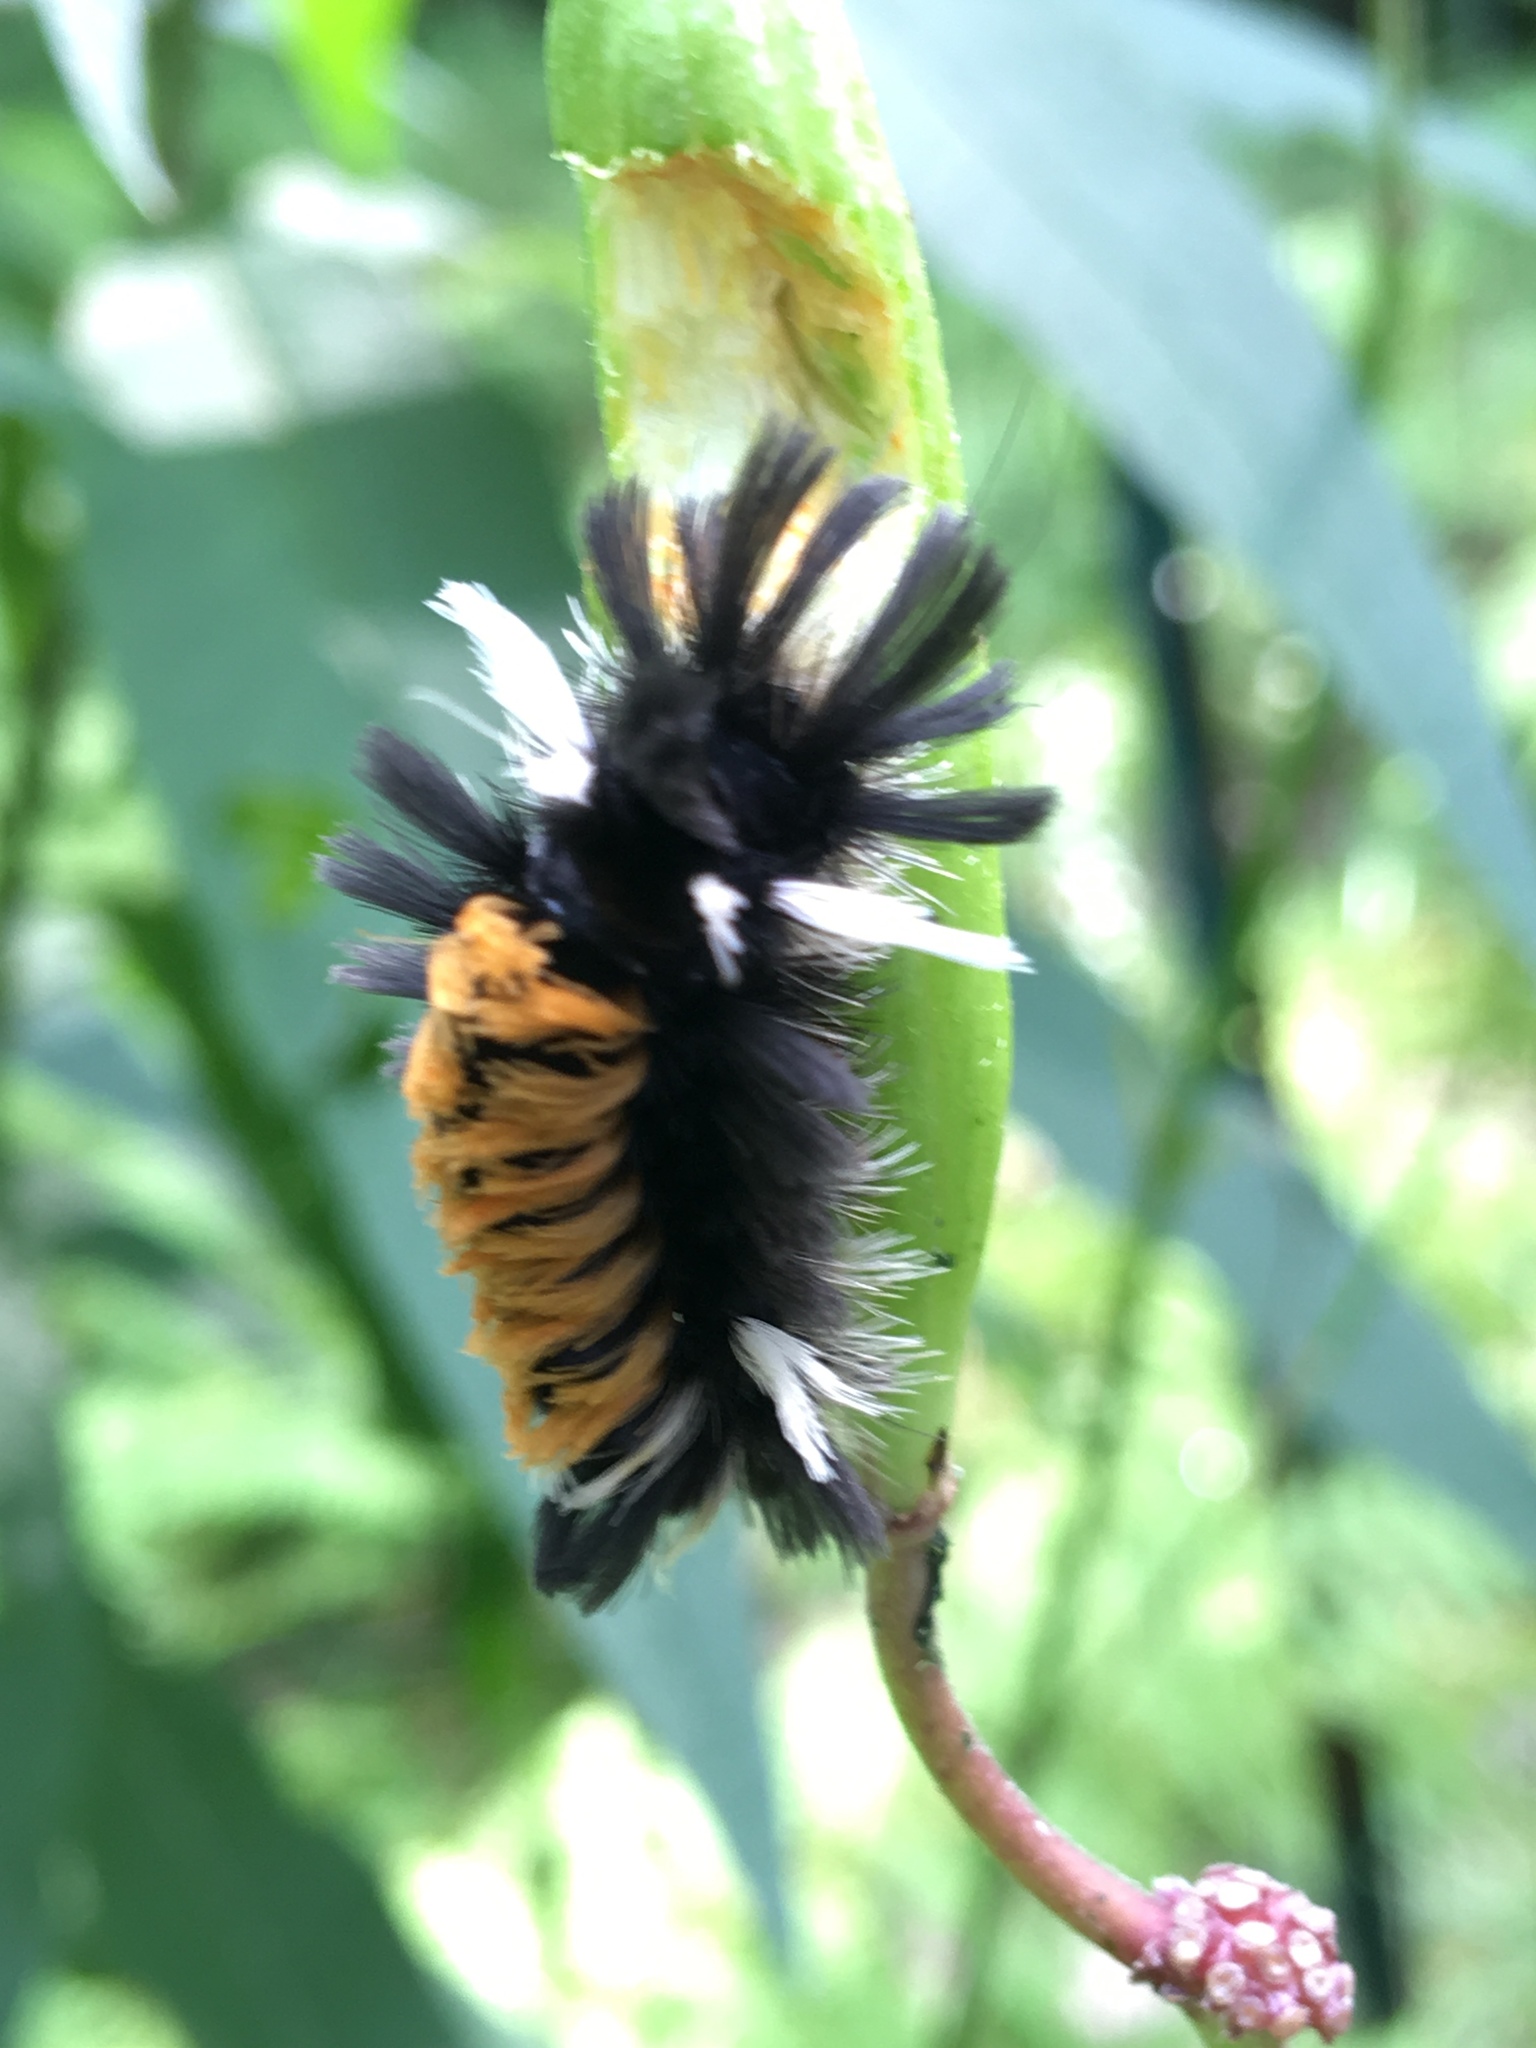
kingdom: Animalia
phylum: Arthropoda
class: Insecta
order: Lepidoptera
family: Erebidae
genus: Euchaetes
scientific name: Euchaetes egle
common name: Milkweed tussock moth
